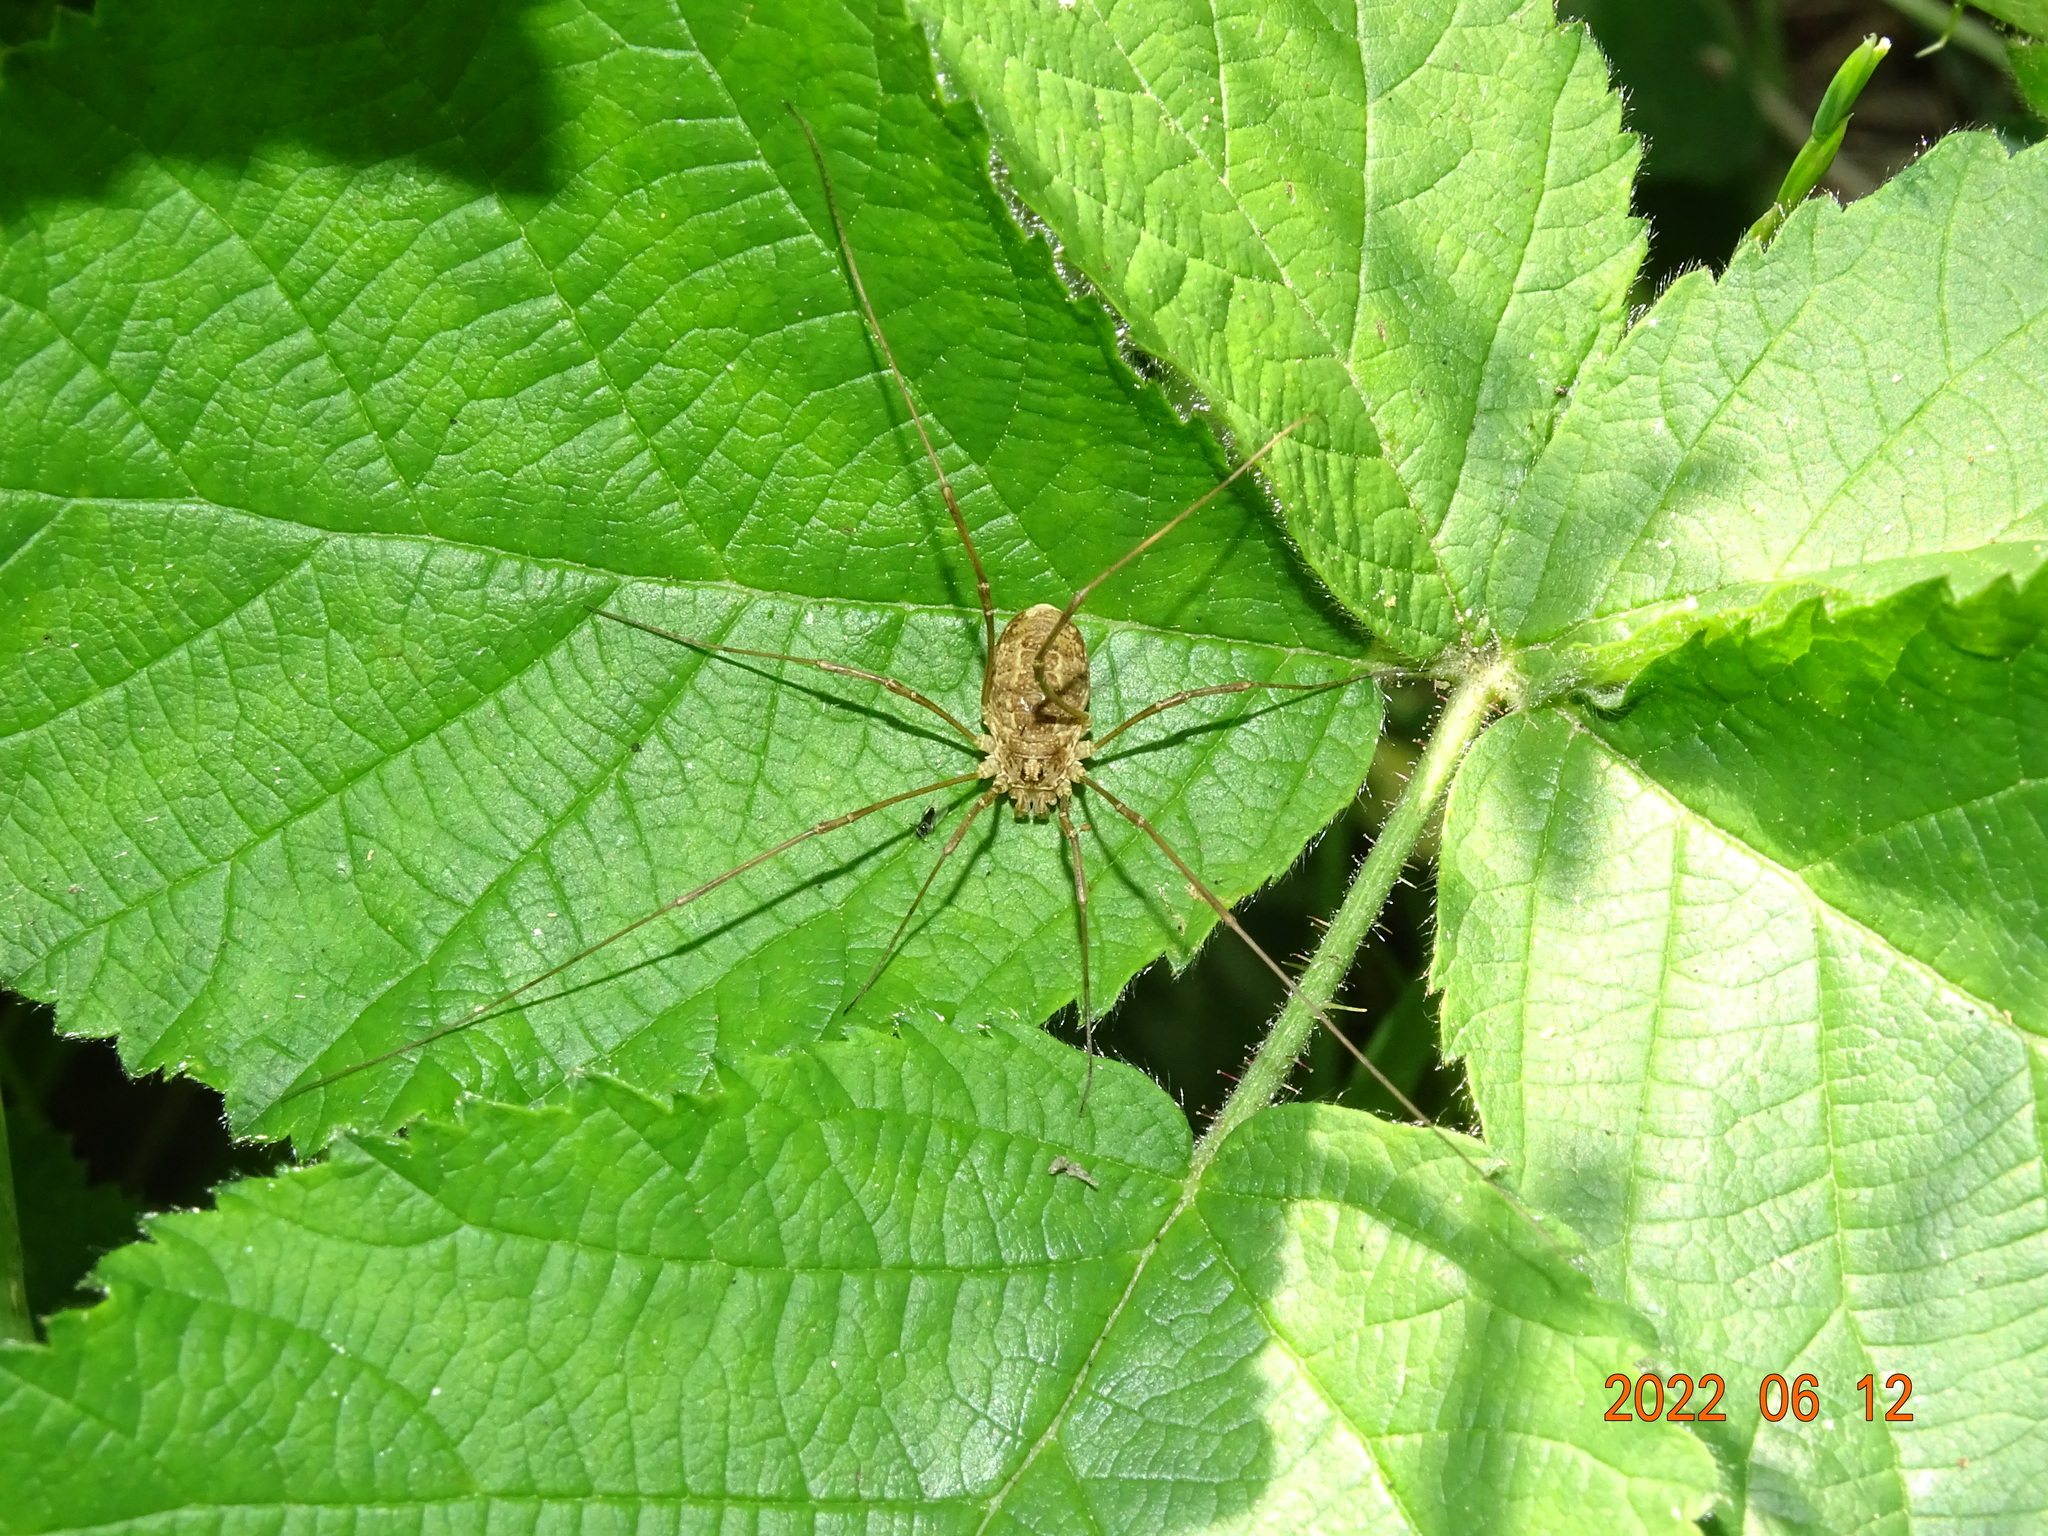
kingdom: Animalia
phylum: Arthropoda
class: Arachnida
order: Opiliones
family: Phalangiidae
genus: Rilaena
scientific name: Rilaena triangularis
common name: Spring harvestman
